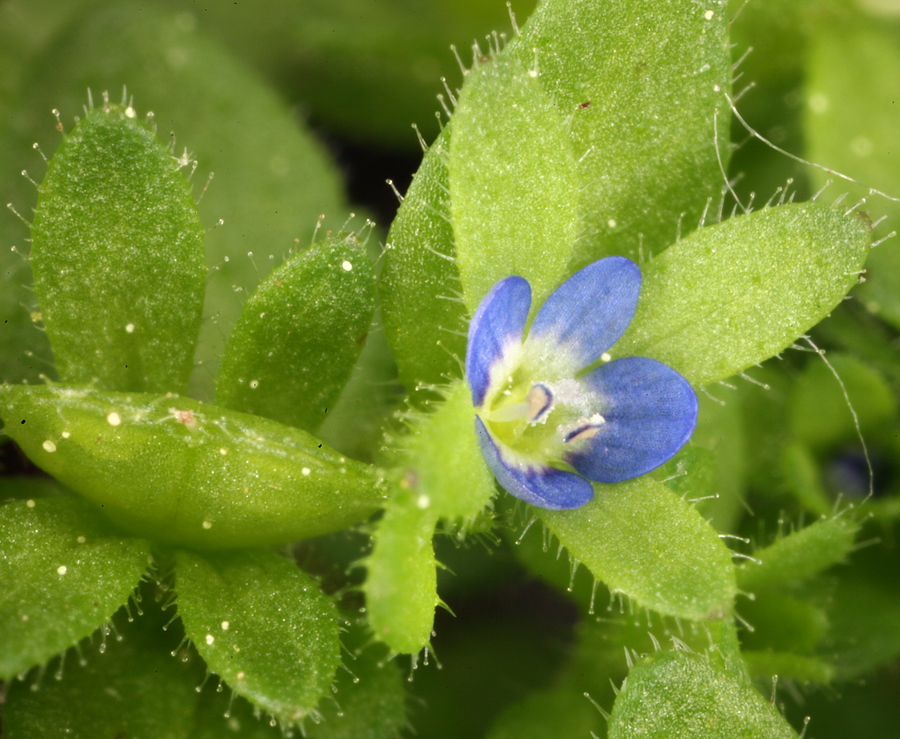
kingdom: Plantae
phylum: Tracheophyta
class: Magnoliopsida
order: Lamiales
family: Plantaginaceae
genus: Veronica
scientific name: Veronica arvensis
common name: Corn speedwell
